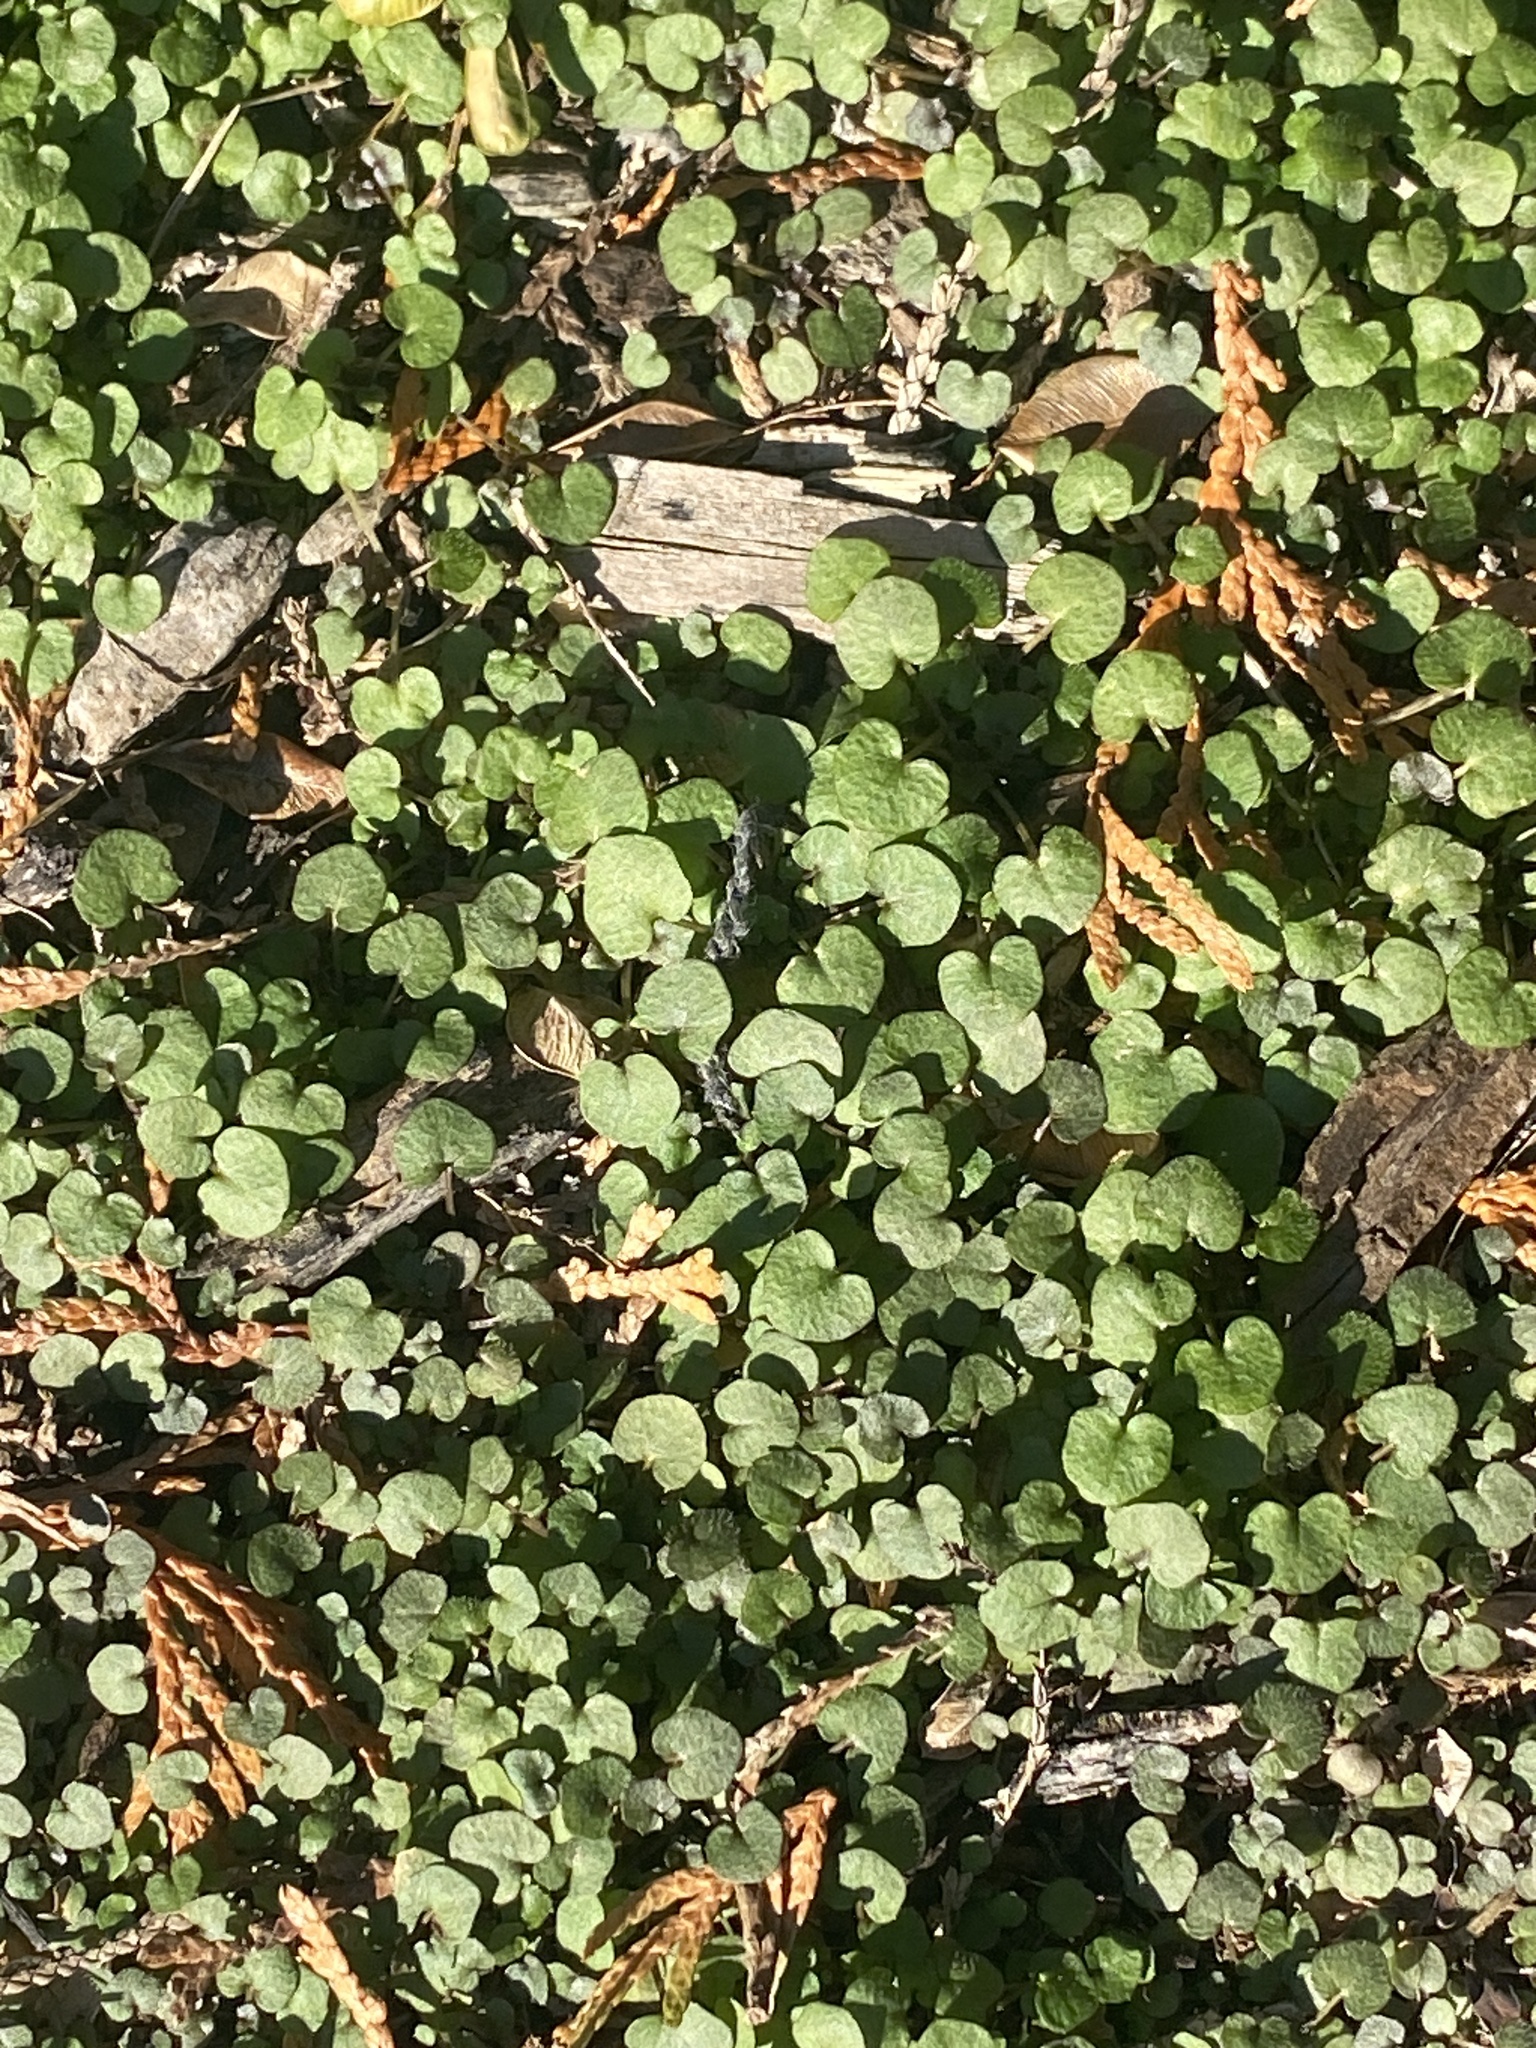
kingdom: Plantae
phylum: Tracheophyta
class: Magnoliopsida
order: Brassicales
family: Brassicaceae
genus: Cardamine
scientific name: Cardamine hirsuta
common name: Hairy bittercress
